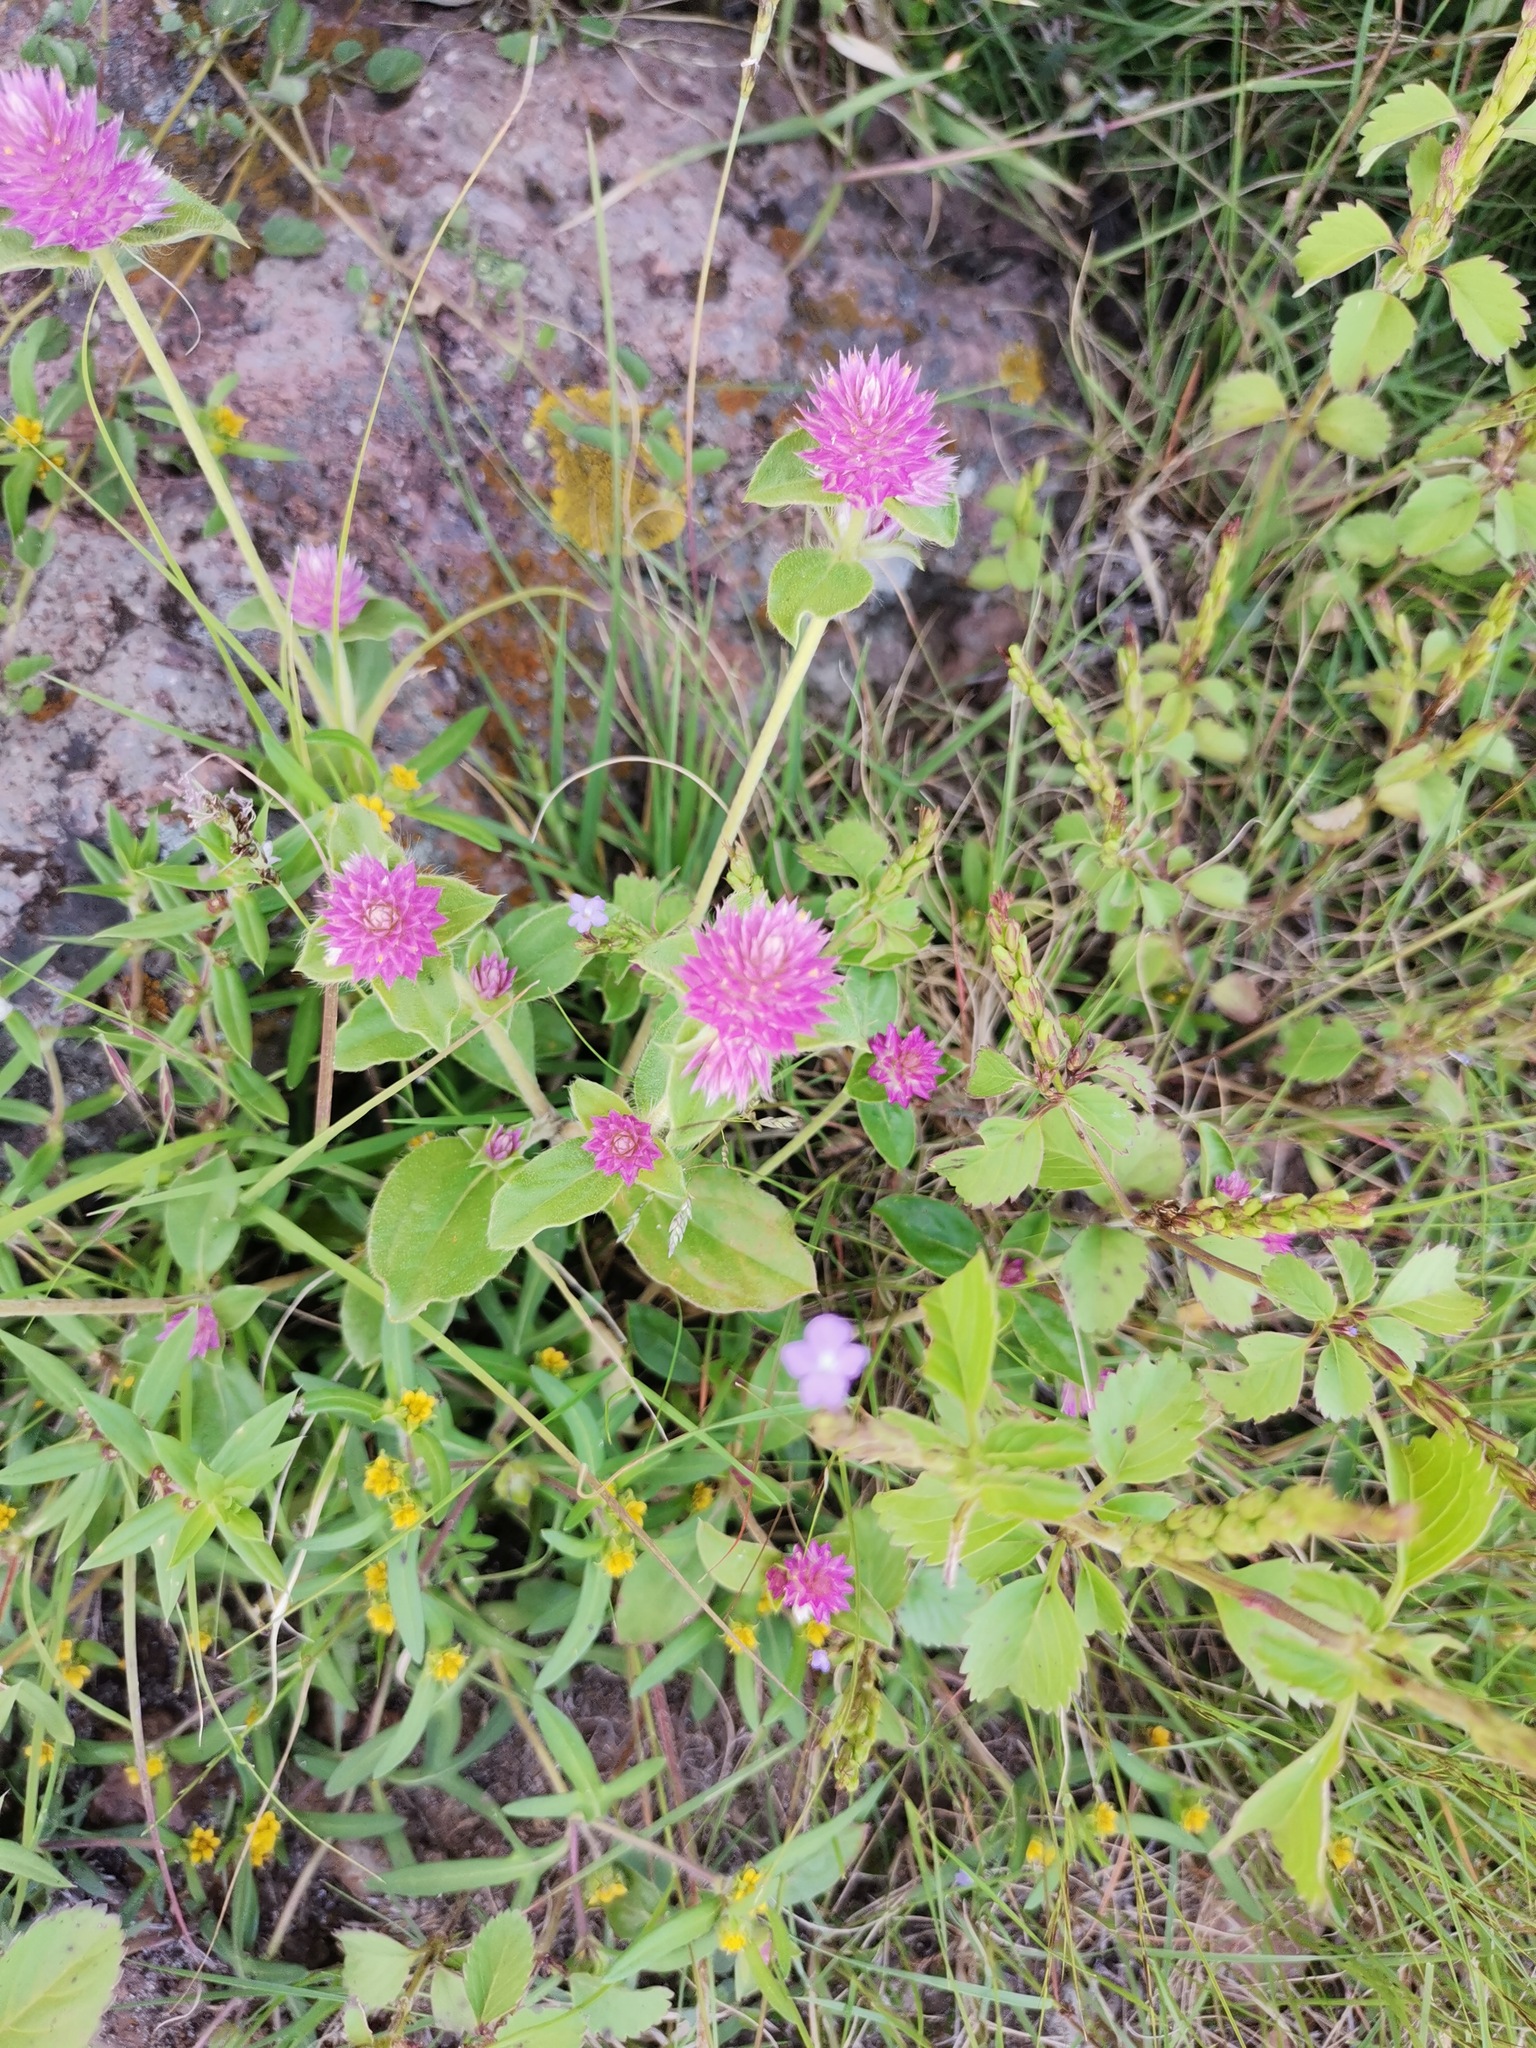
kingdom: Plantae
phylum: Tracheophyta
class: Magnoliopsida
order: Caryophyllales
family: Amaranthaceae
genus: Gomphrena
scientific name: Gomphrena nitida
